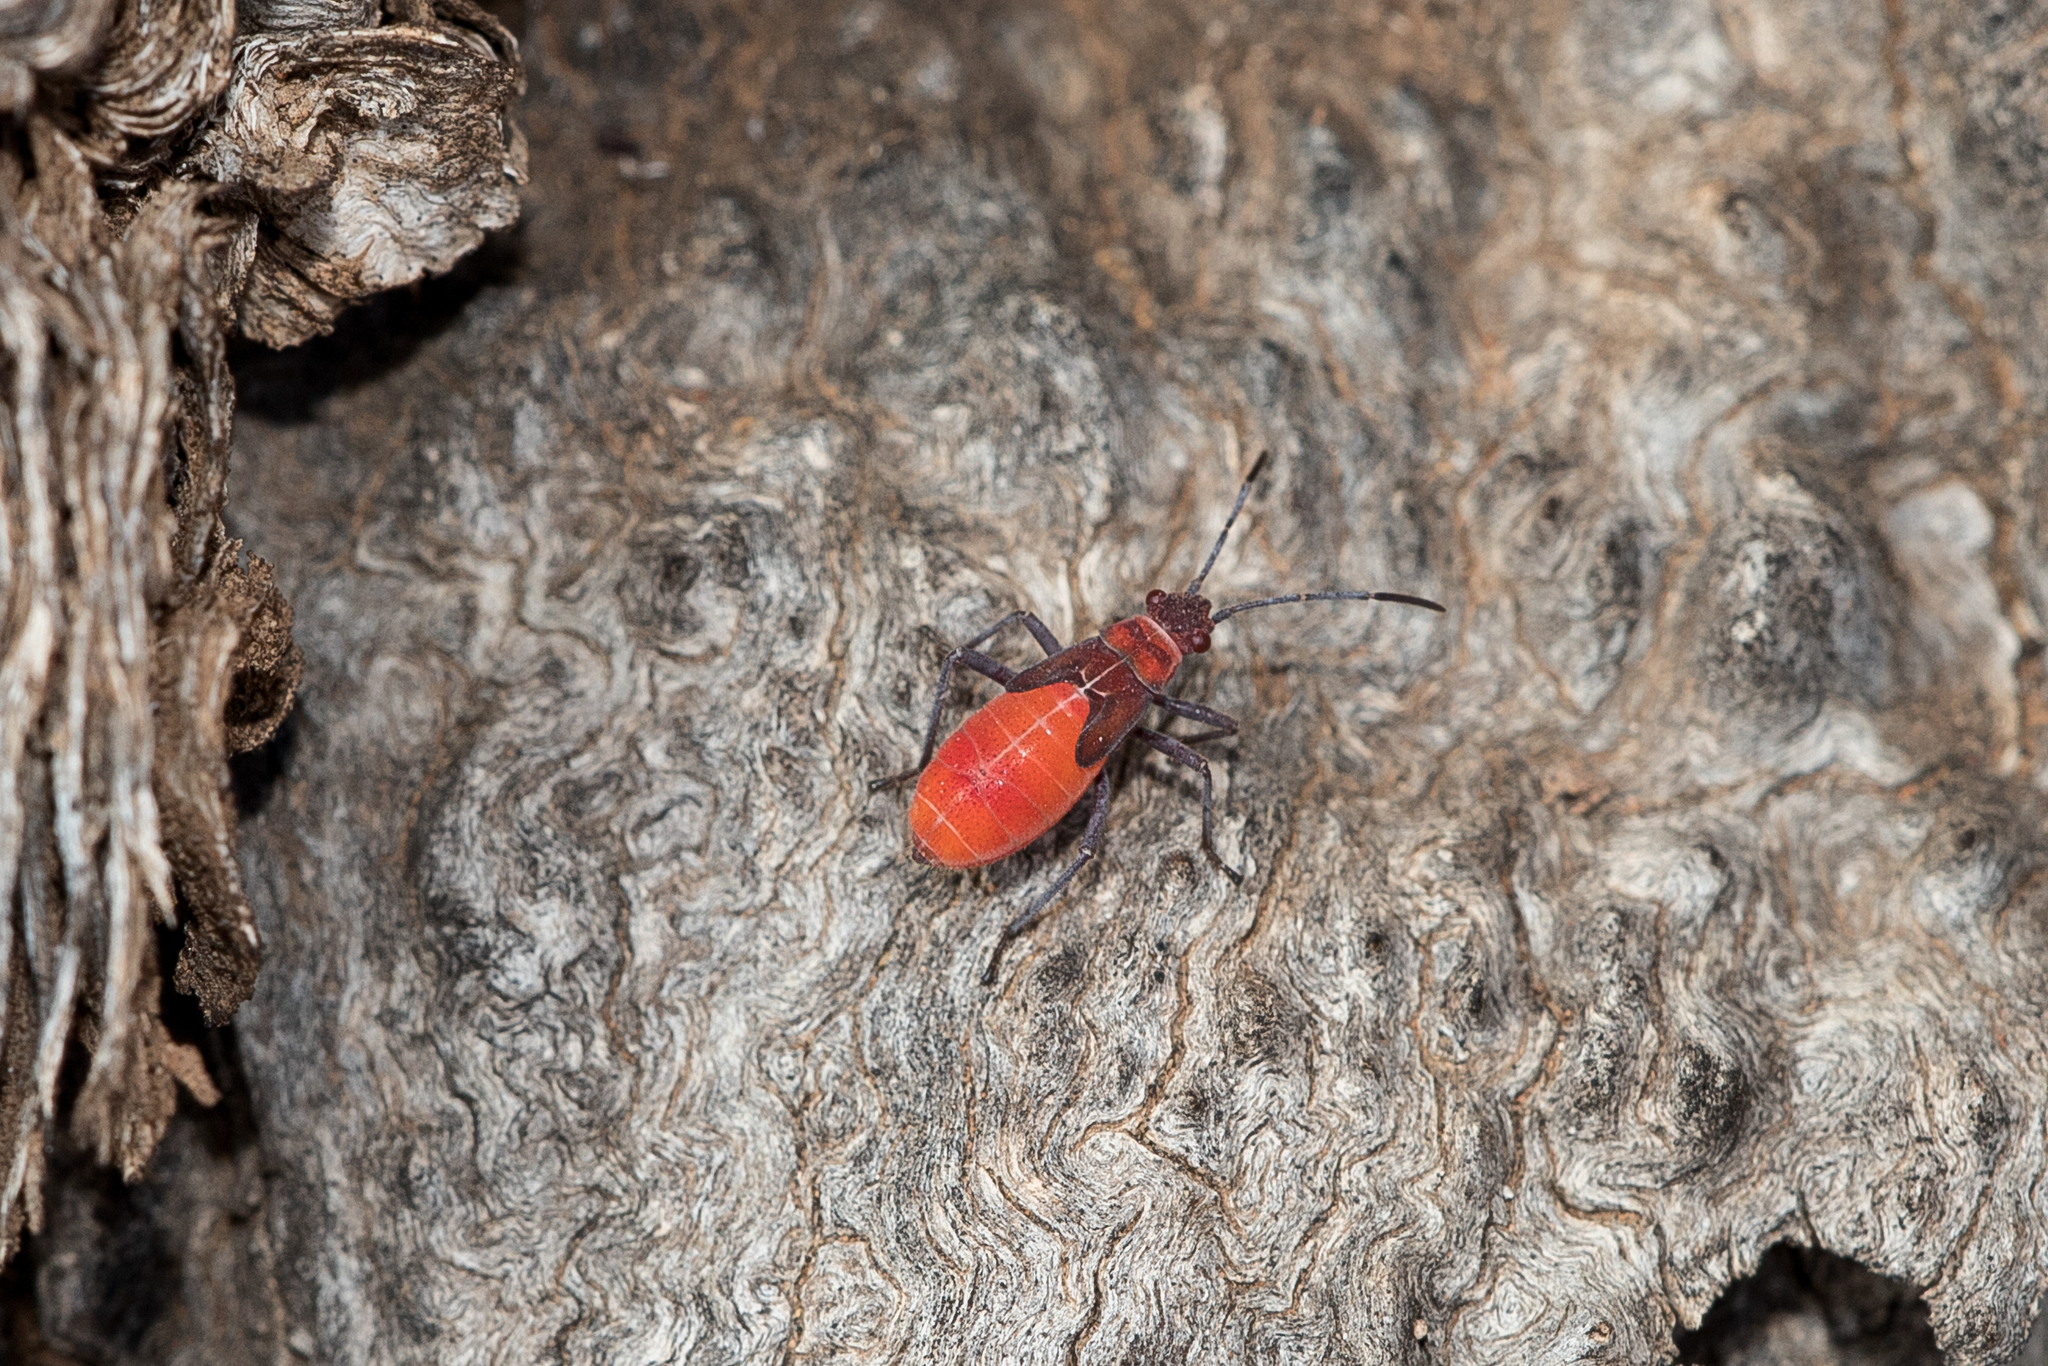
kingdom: Animalia
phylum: Arthropoda
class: Insecta
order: Hemiptera
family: Rhopalidae
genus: Leptocoris
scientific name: Leptocoris
